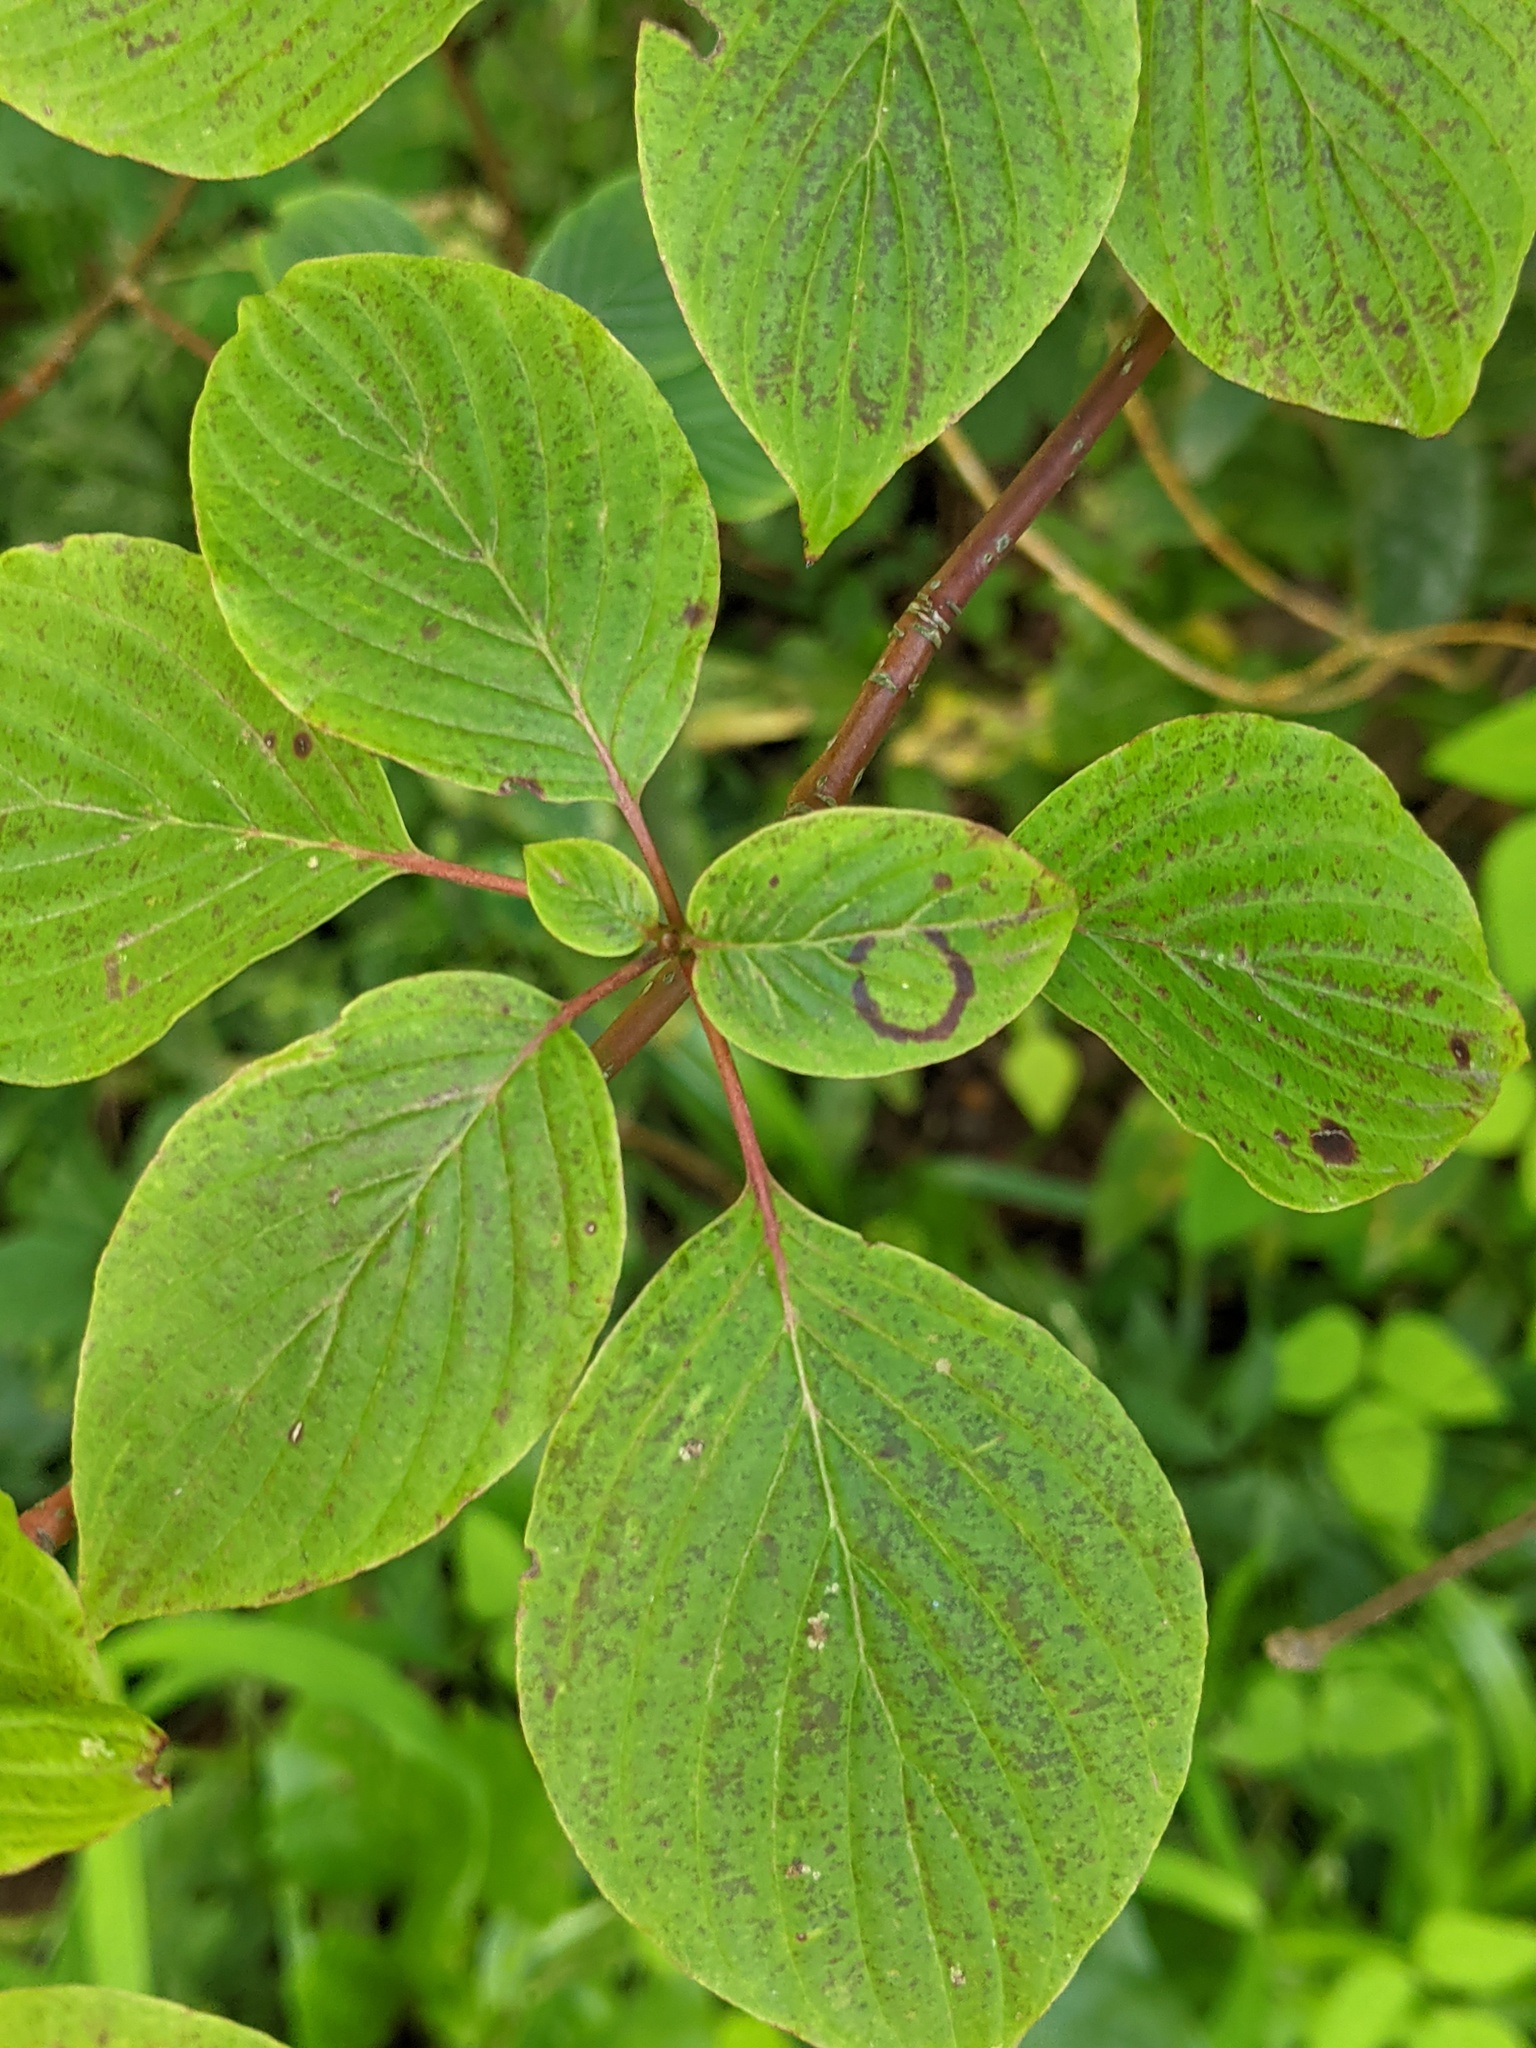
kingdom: Animalia
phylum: Arthropoda
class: Insecta
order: Diptera
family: Cecidomyiidae
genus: Parallelodiplosis
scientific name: Parallelodiplosis subtruncata
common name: Dogwood eyespot gall midge
